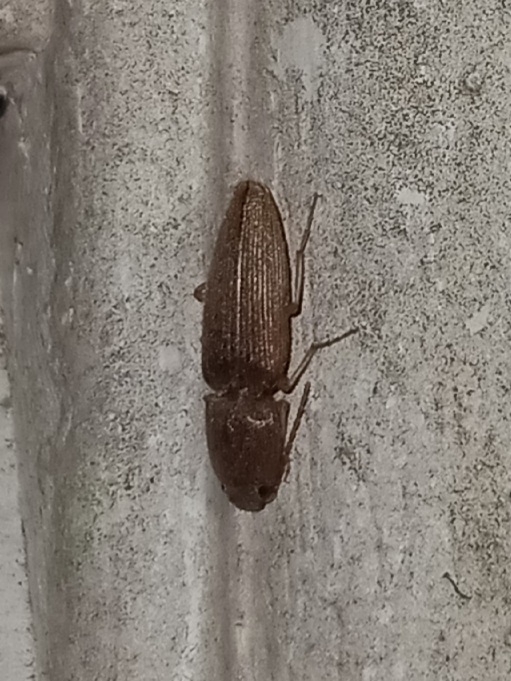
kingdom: Animalia
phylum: Arthropoda
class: Insecta
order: Coleoptera
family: Elateridae
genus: Monocrepidius
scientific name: Monocrepidius scissus
